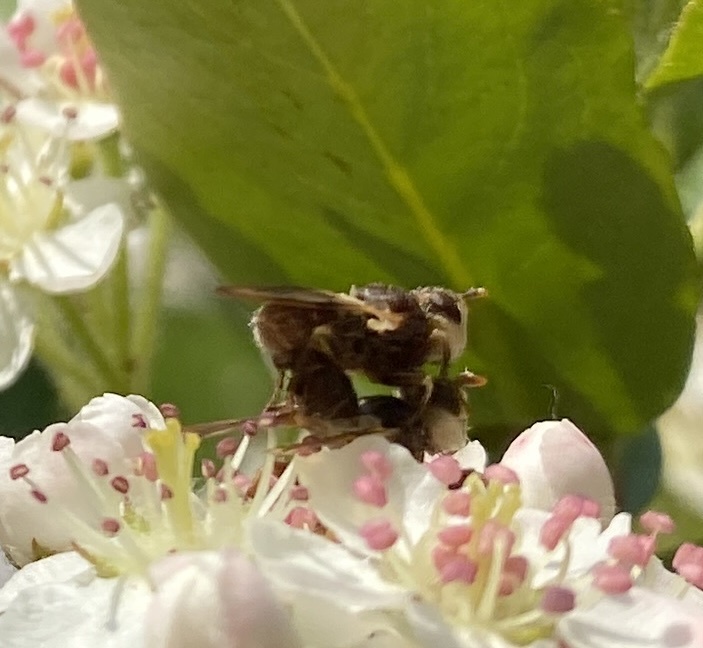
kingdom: Animalia
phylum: Arthropoda
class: Insecta
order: Diptera
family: Conopidae
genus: Myopa
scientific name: Myopa vesiculosa
